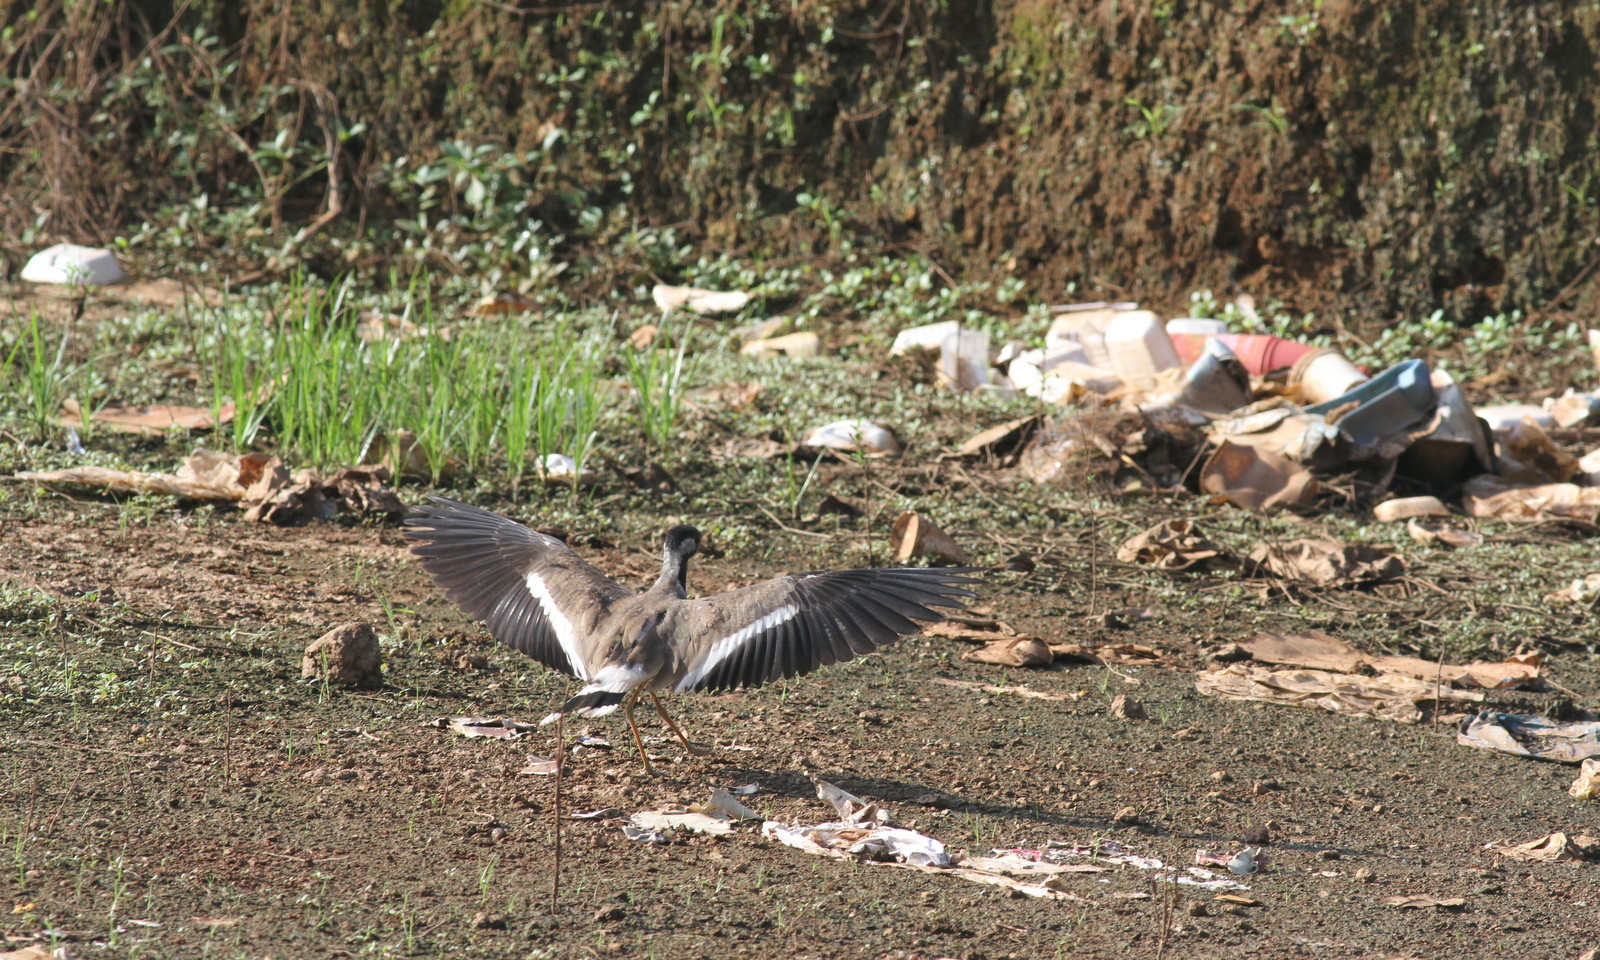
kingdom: Animalia
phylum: Chordata
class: Aves
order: Charadriiformes
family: Charadriidae
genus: Vanellus
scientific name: Vanellus indicus
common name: Red-wattled lapwing
